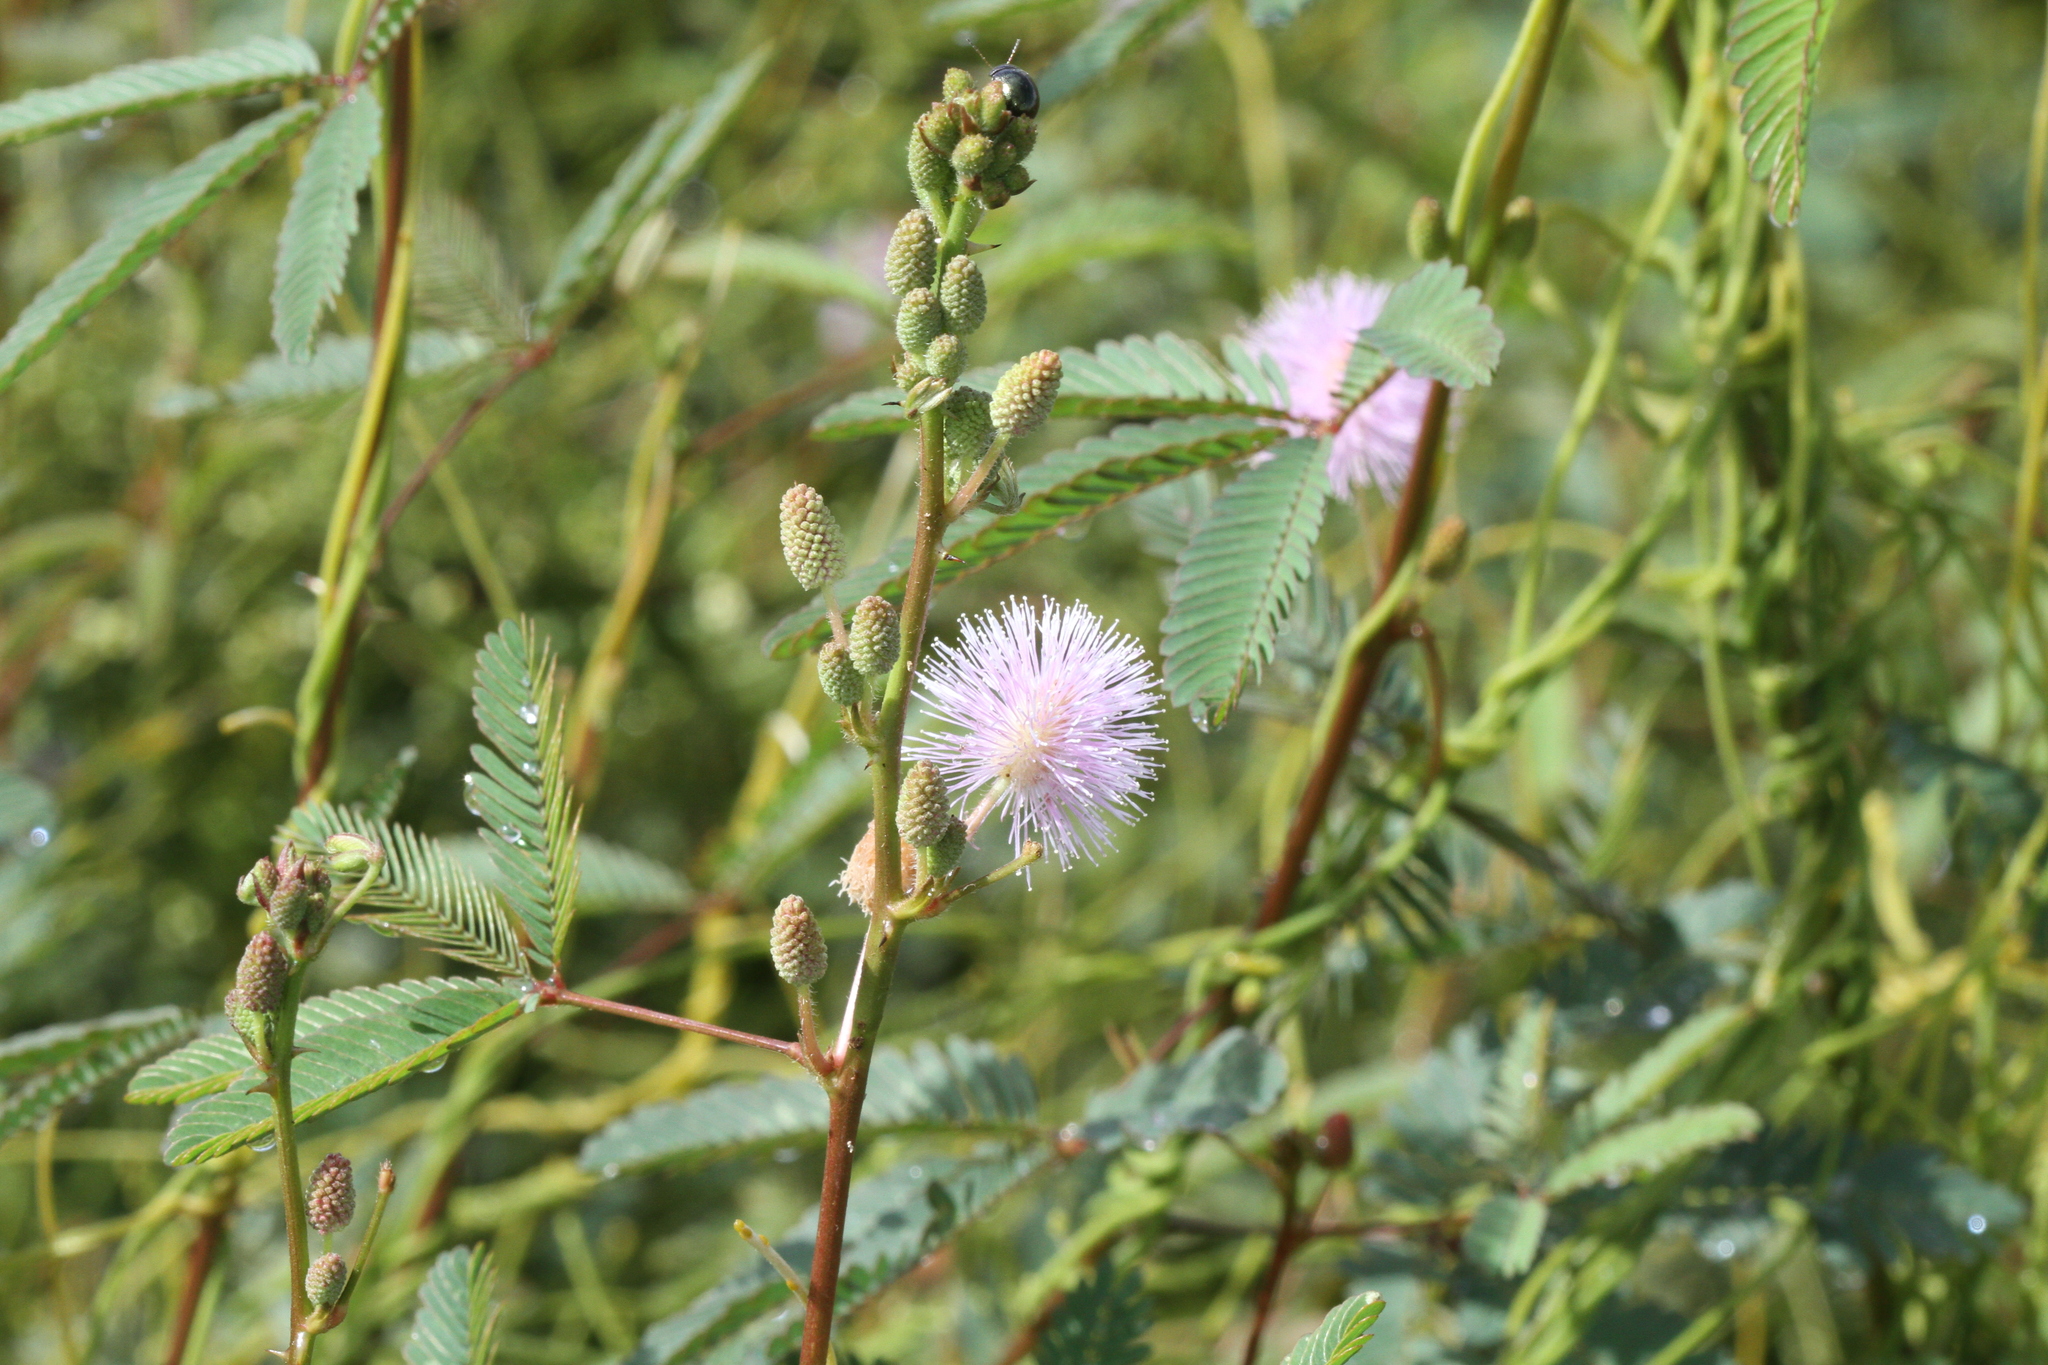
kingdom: Plantae
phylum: Tracheophyta
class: Magnoliopsida
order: Fabales
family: Fabaceae
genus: Mimosa
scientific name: Mimosa pudica
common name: Sensitive plant
